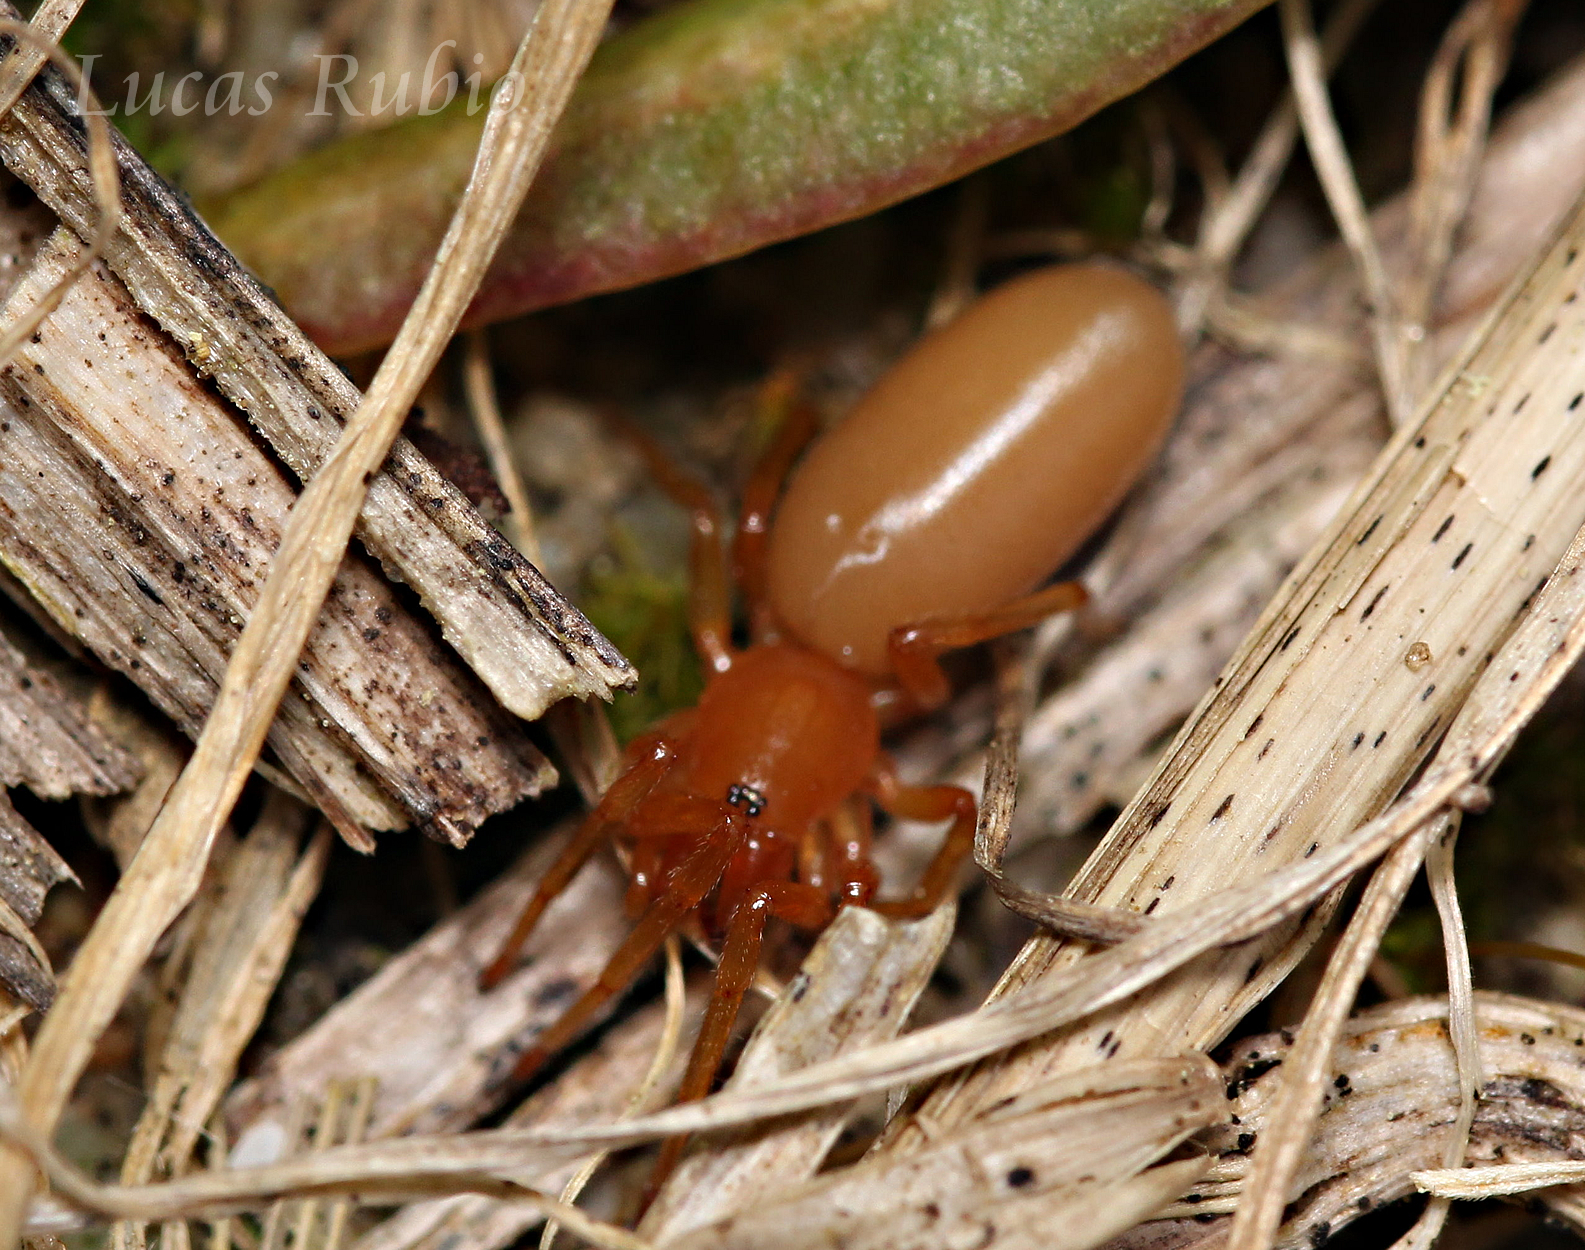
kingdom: Animalia
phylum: Arthropoda
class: Arachnida
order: Araneae
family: Dysderidae
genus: Dysdera
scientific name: Dysdera crocata
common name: Woodlouse spider
